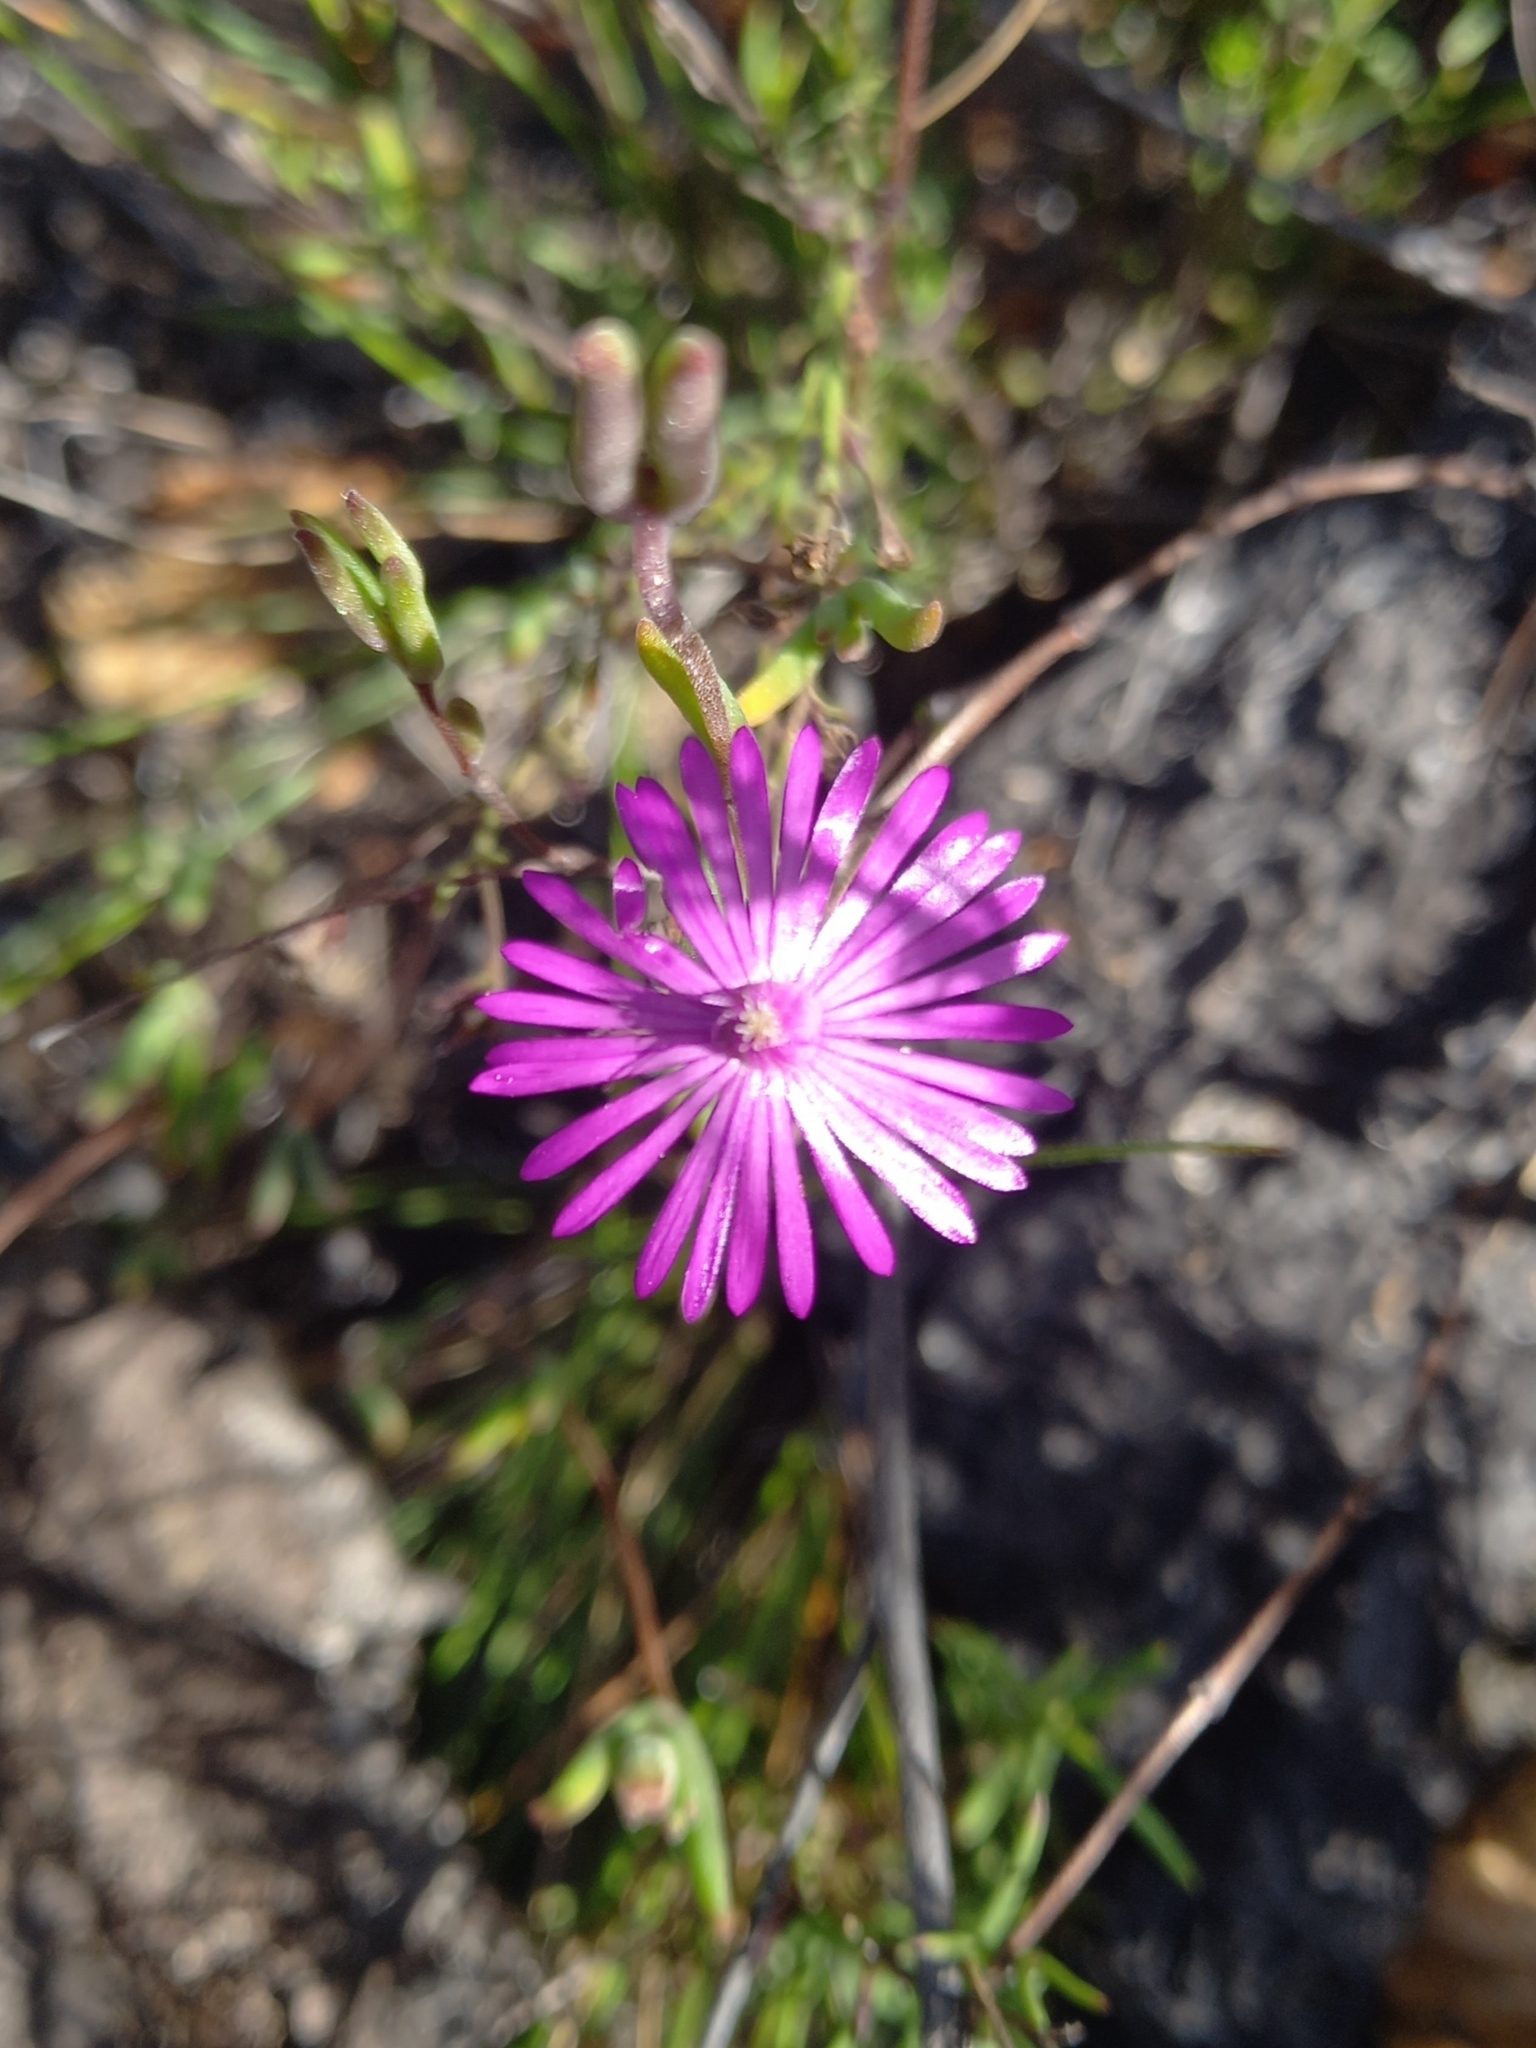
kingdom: Plantae
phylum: Tracheophyta
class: Magnoliopsida
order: Caryophyllales
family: Aizoaceae
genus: Lampranthus
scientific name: Lampranthus elegans
